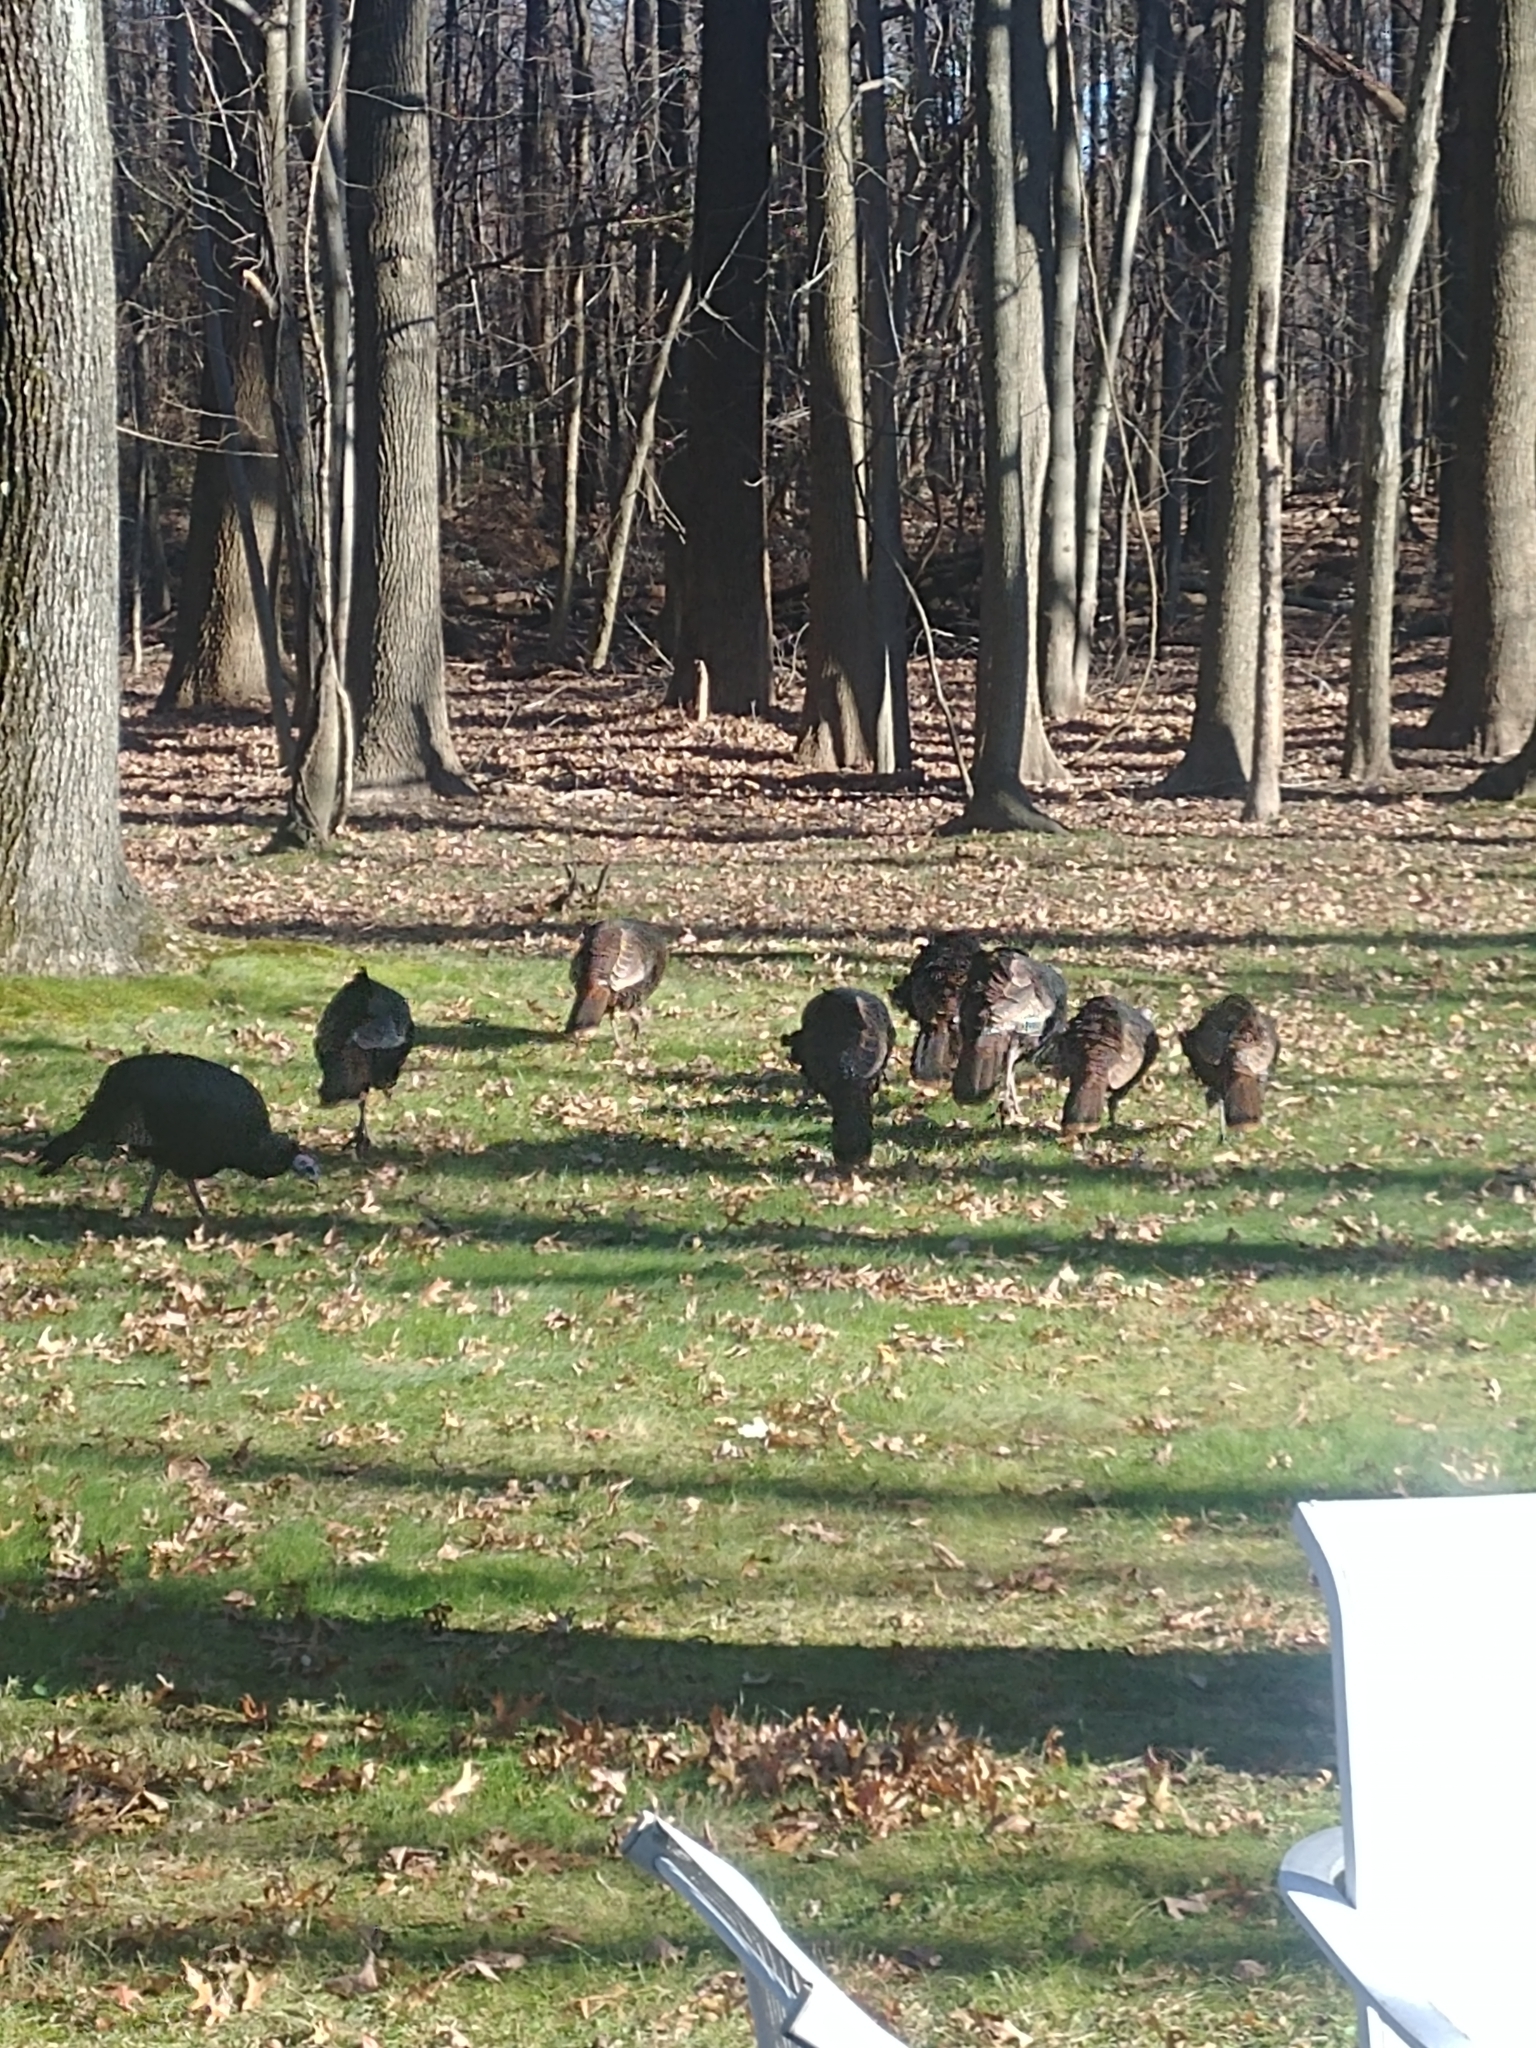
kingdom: Animalia
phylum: Chordata
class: Aves
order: Galliformes
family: Phasianidae
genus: Meleagris
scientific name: Meleagris gallopavo
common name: Wild turkey
